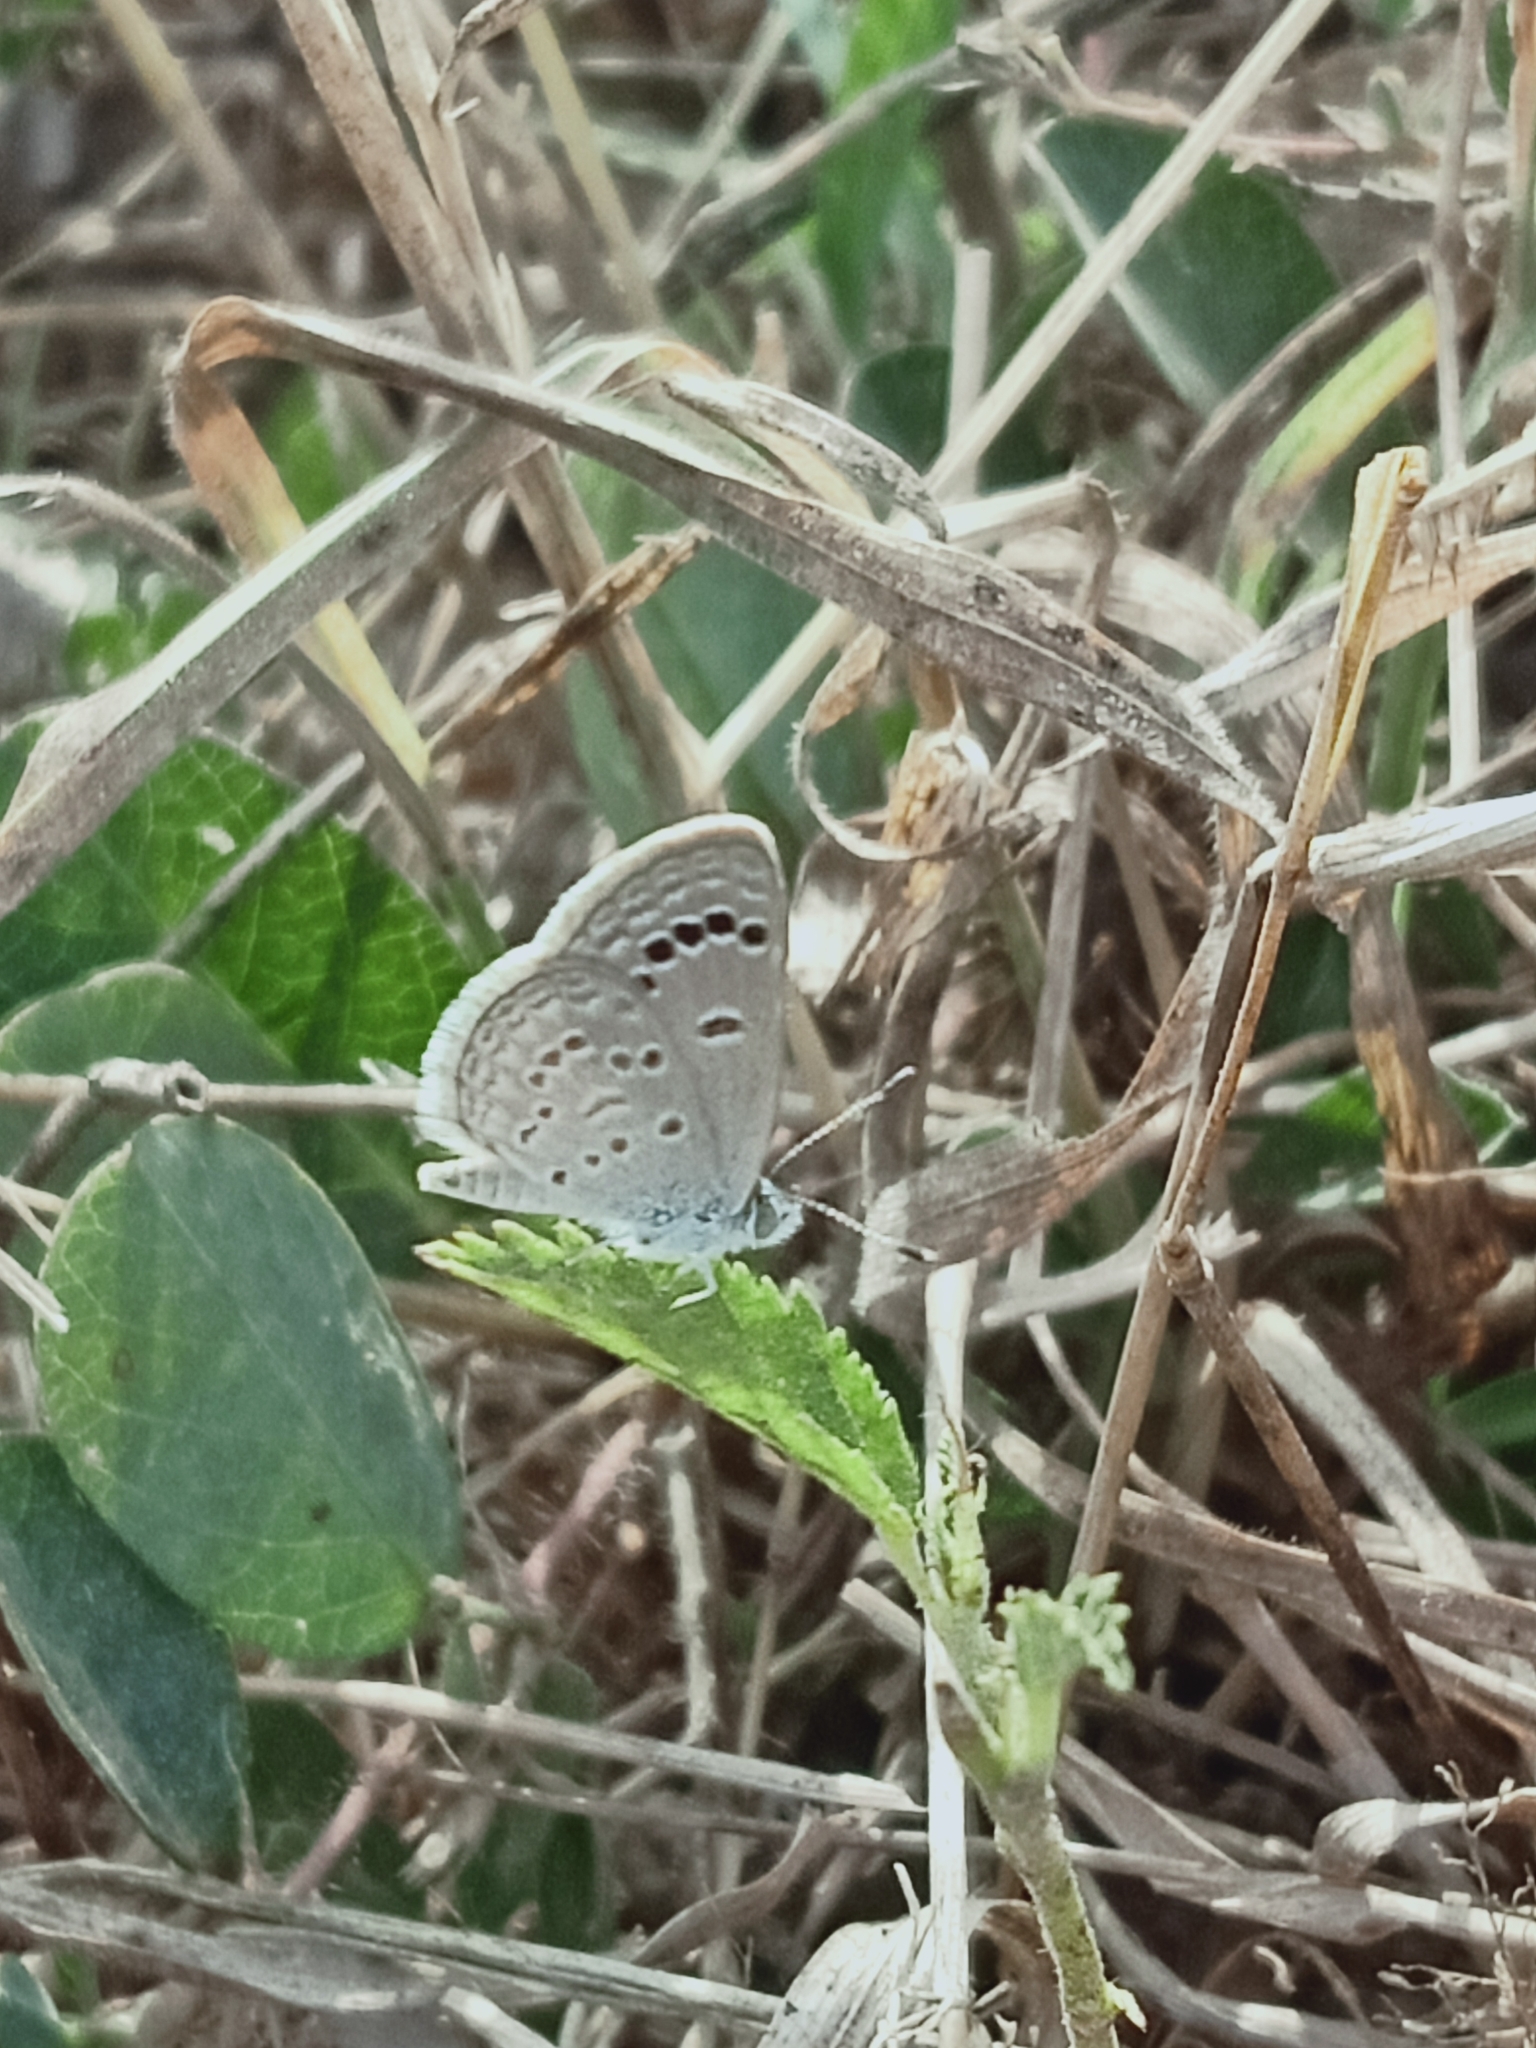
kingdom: Animalia
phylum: Arthropoda
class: Insecta
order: Lepidoptera
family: Lycaenidae
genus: Zizina
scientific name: Zizina otis
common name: Lesser grass blue
